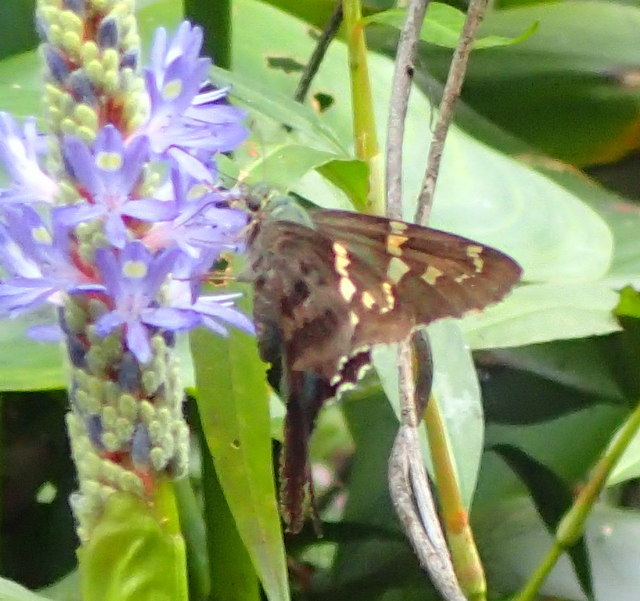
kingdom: Animalia
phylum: Arthropoda
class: Insecta
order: Lepidoptera
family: Hesperiidae
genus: Urbanus
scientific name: Urbanus proteus
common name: Long-tailed skipper
